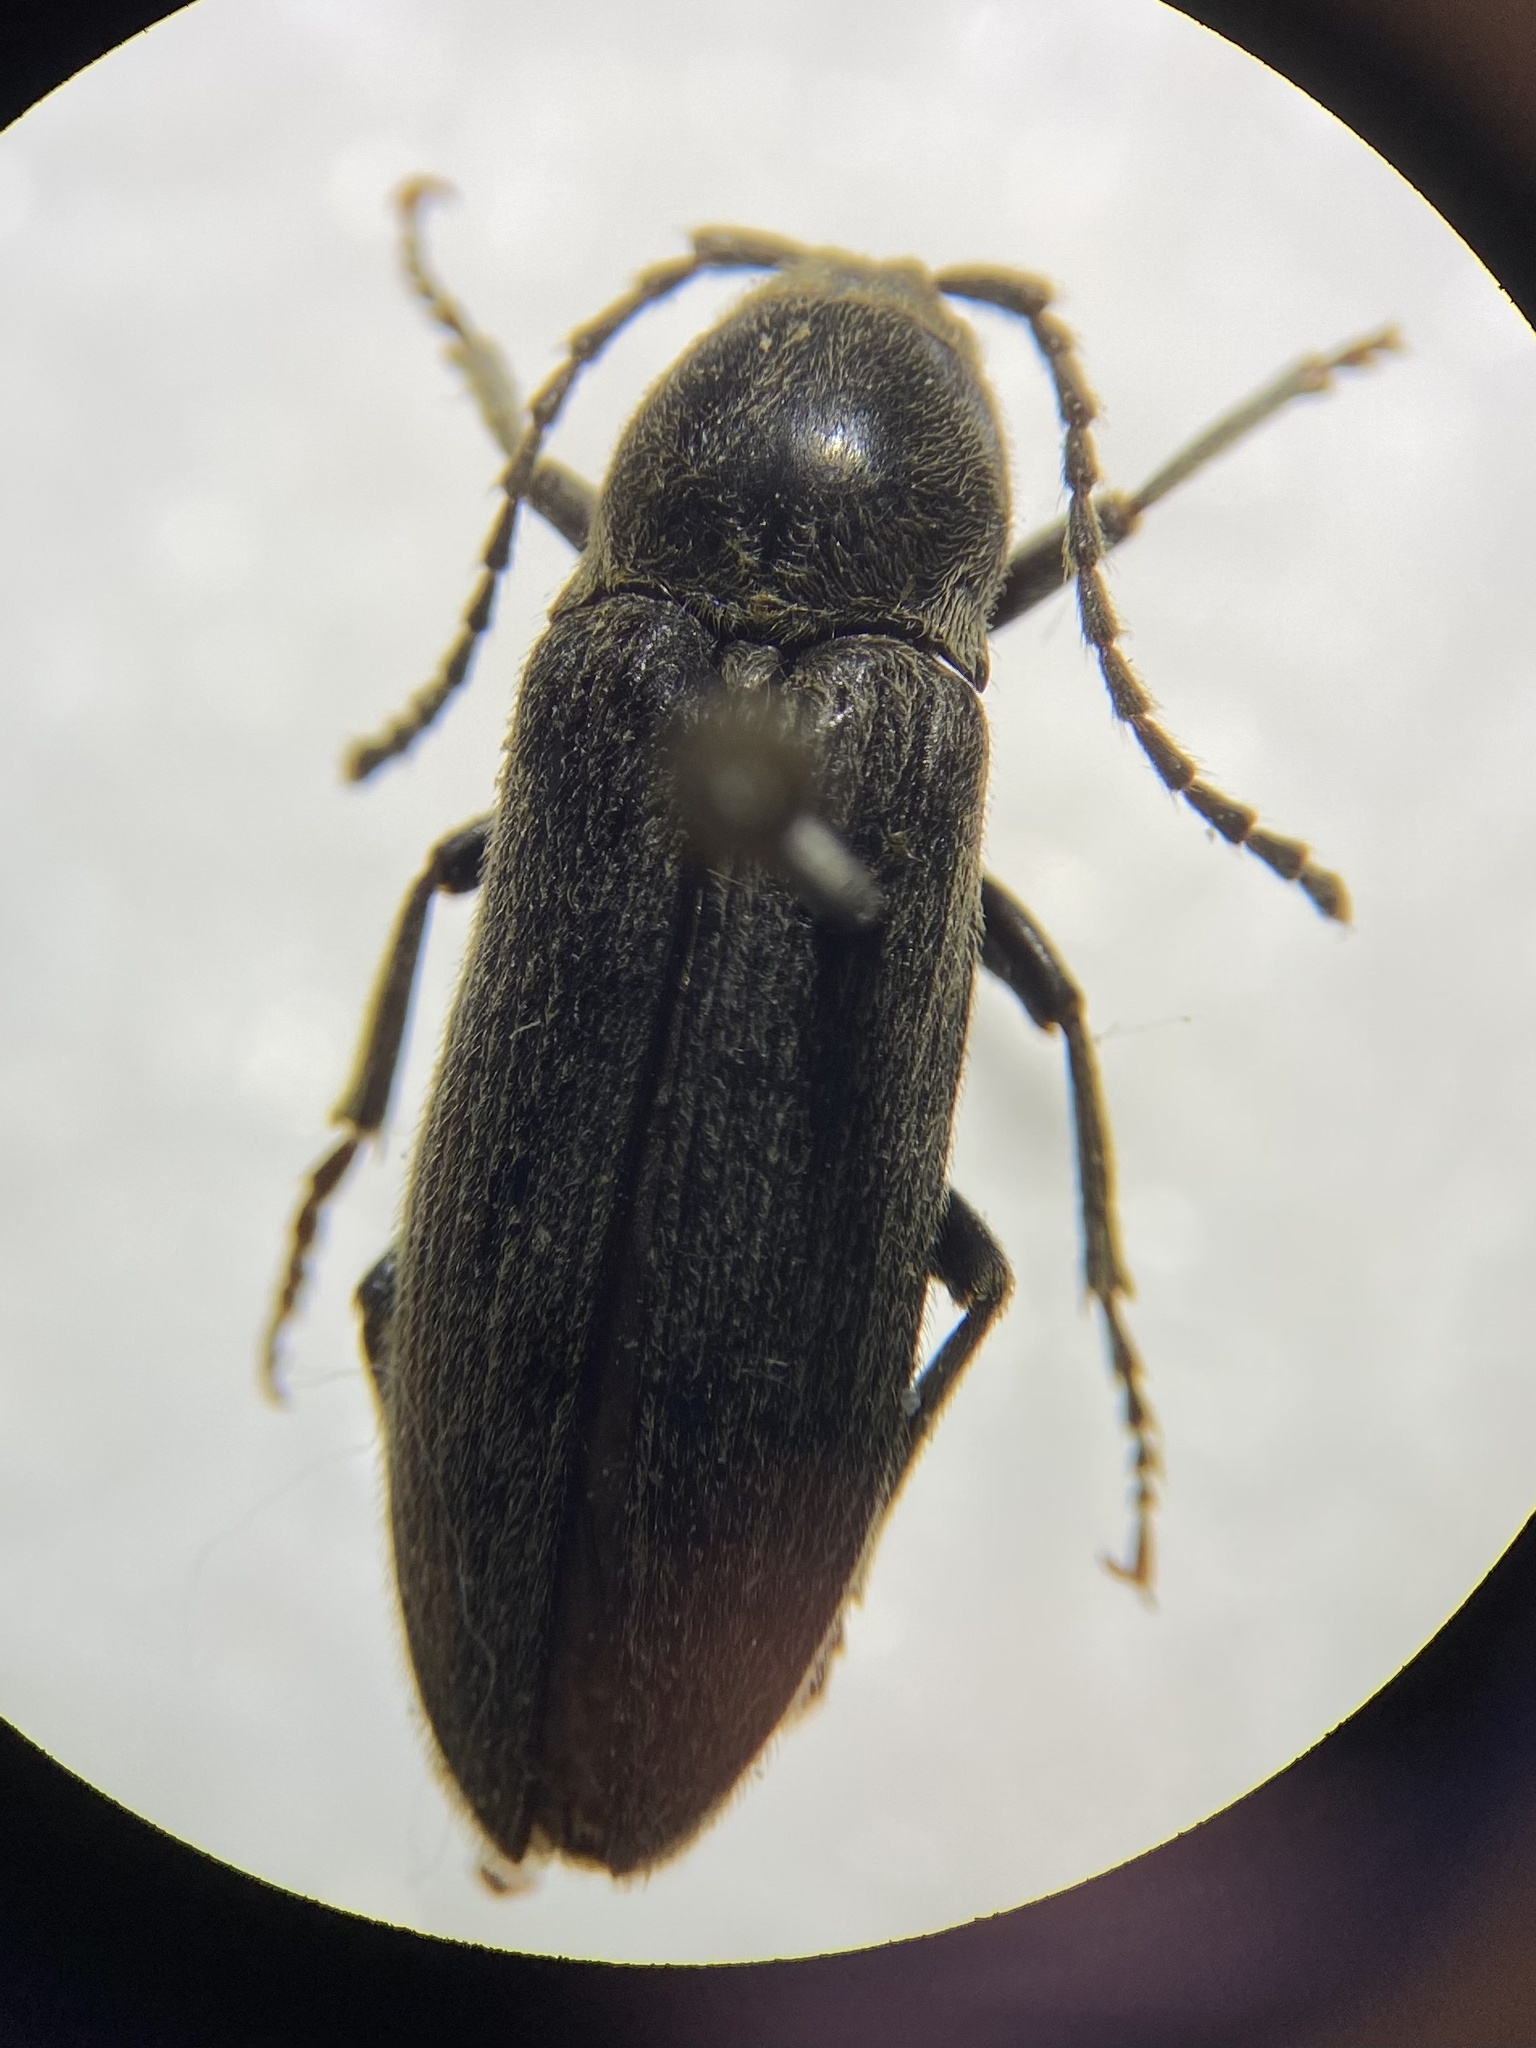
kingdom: Animalia
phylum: Arthropoda
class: Insecta
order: Coleoptera
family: Eucnemidae
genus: Perothops
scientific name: Perothops
